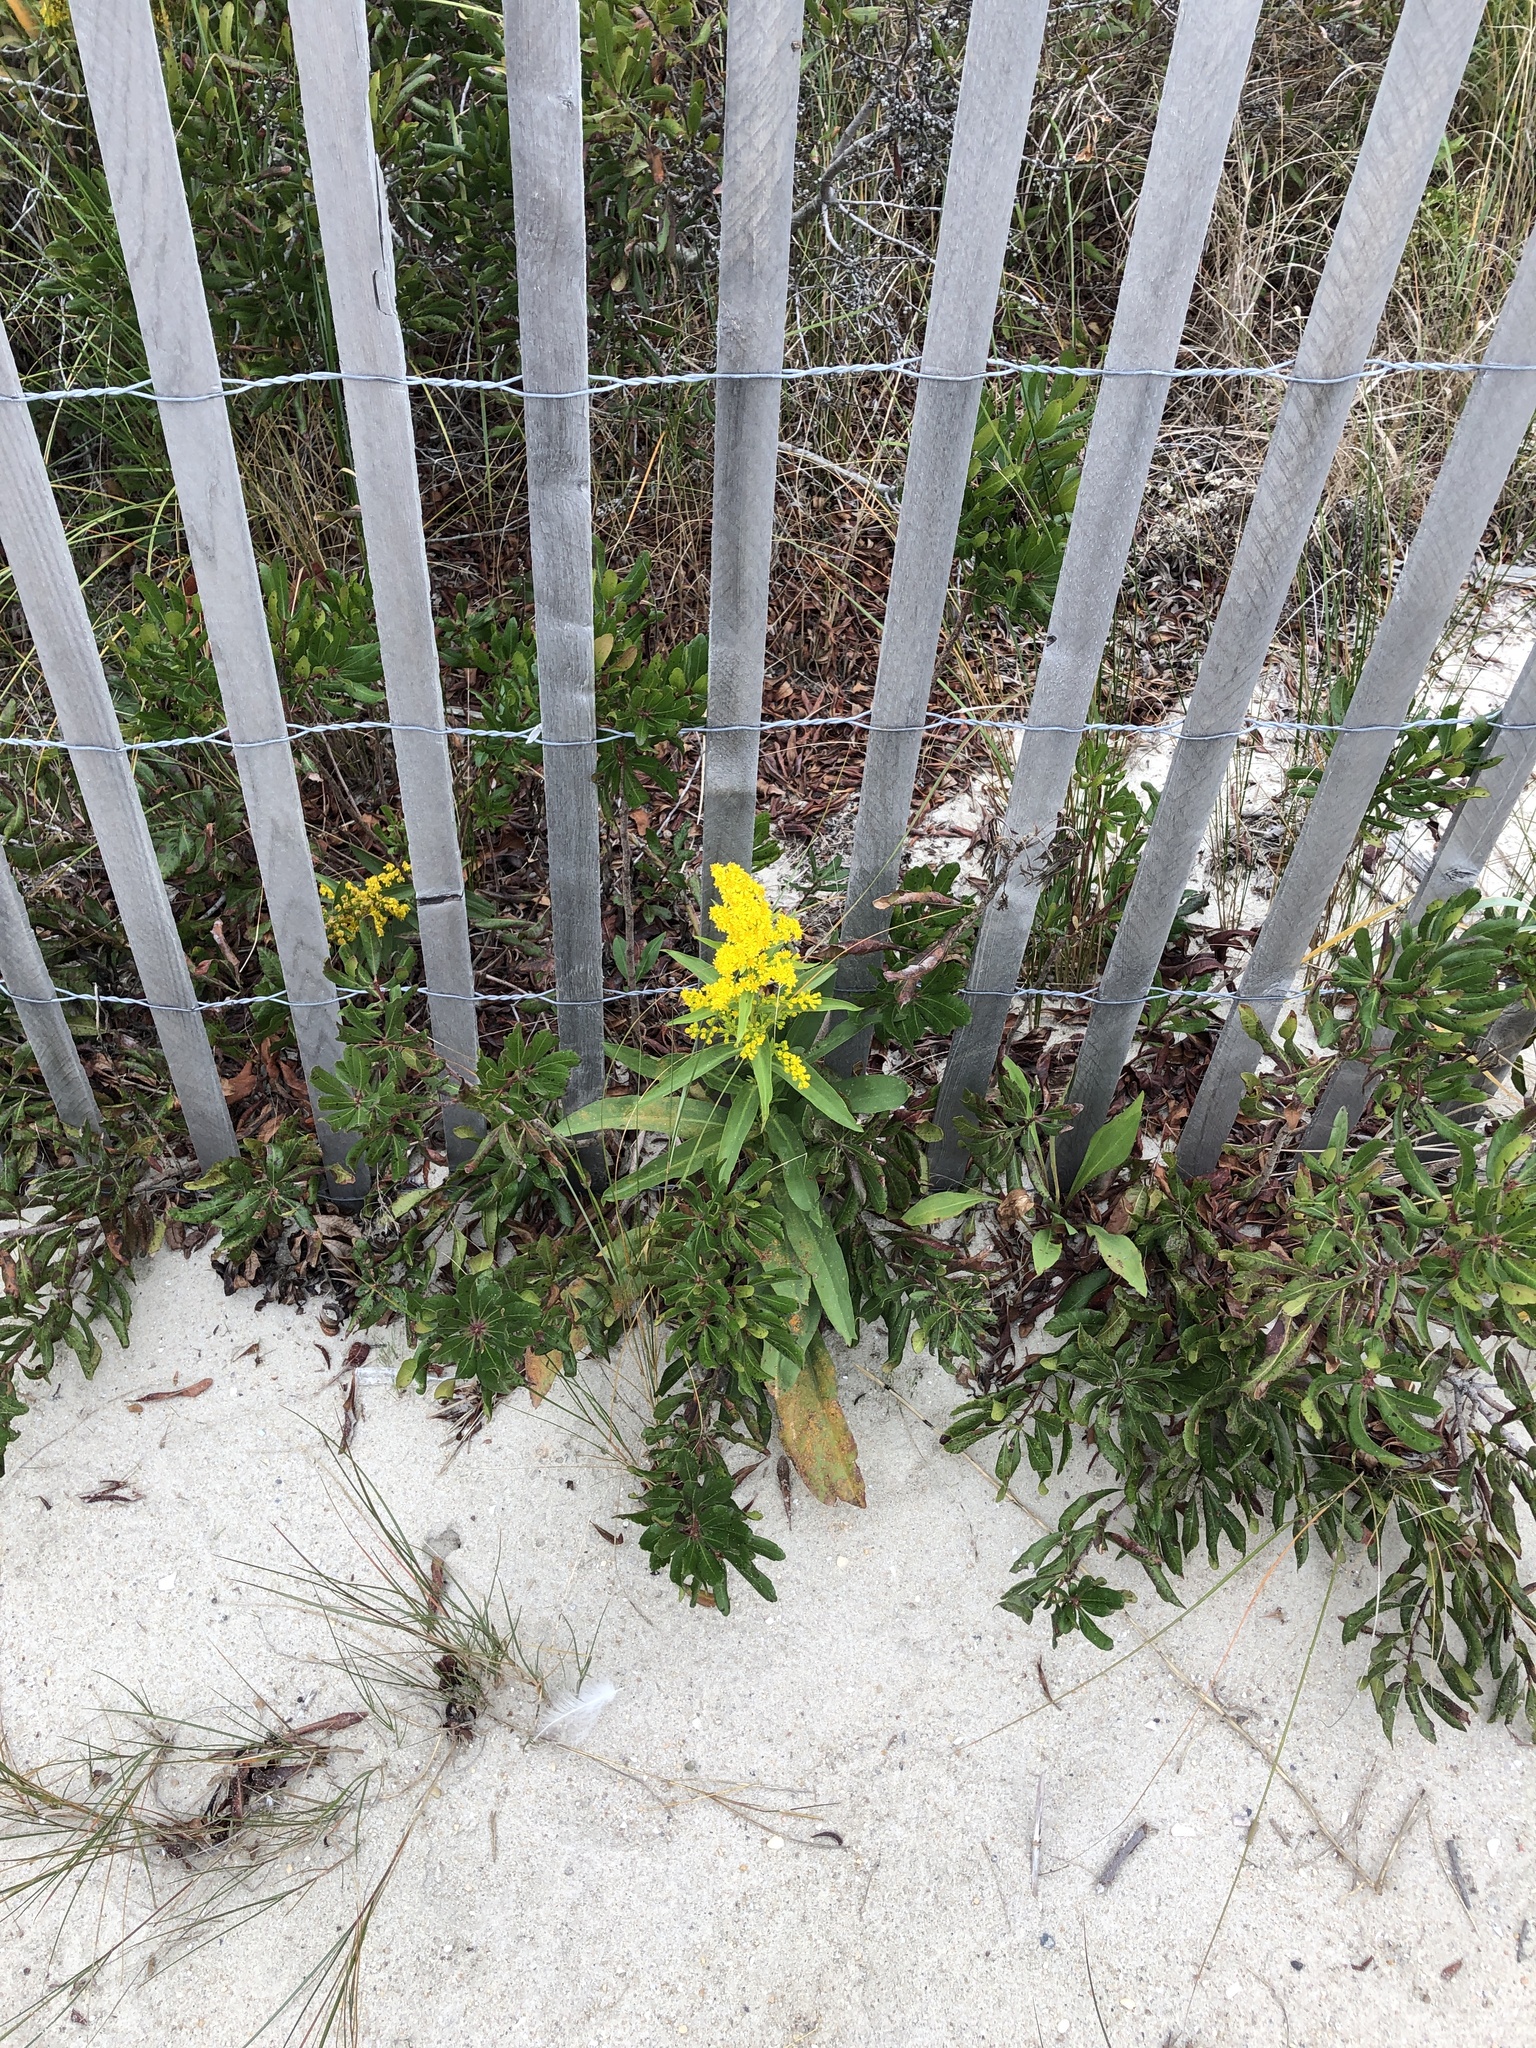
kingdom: Plantae
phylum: Tracheophyta
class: Magnoliopsida
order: Asterales
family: Asteraceae
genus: Solidago
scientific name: Solidago sempervirens
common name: Salt-marsh goldenrod
